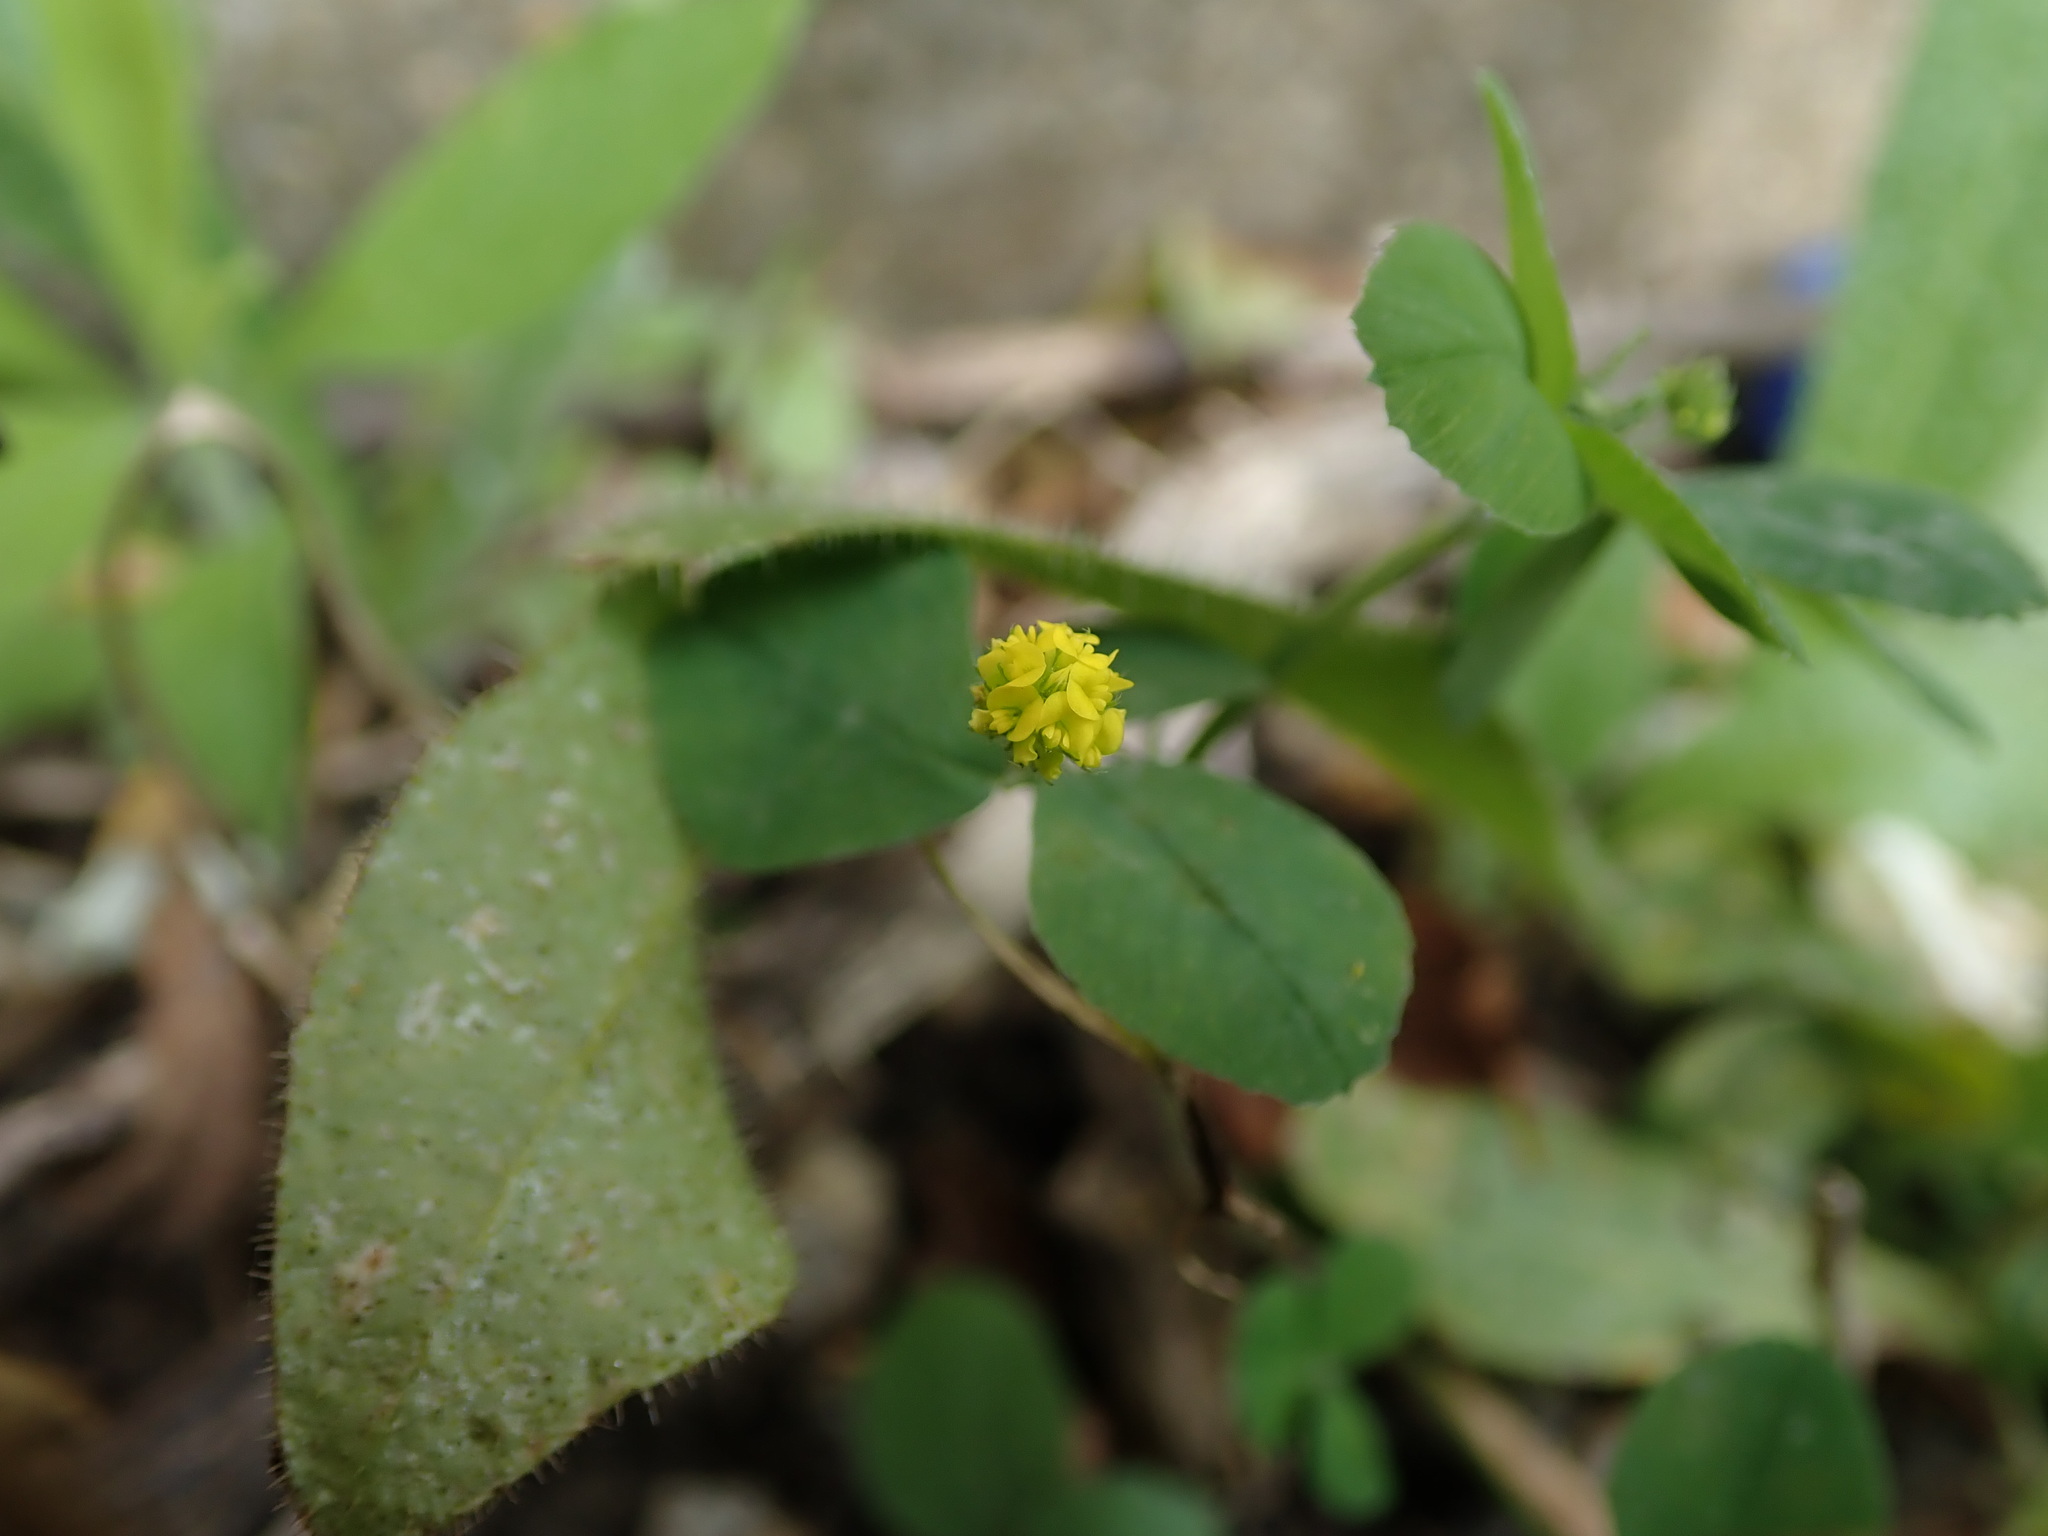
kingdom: Plantae
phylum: Tracheophyta
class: Magnoliopsida
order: Fabales
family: Fabaceae
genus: Medicago
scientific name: Medicago lupulina
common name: Black medick
